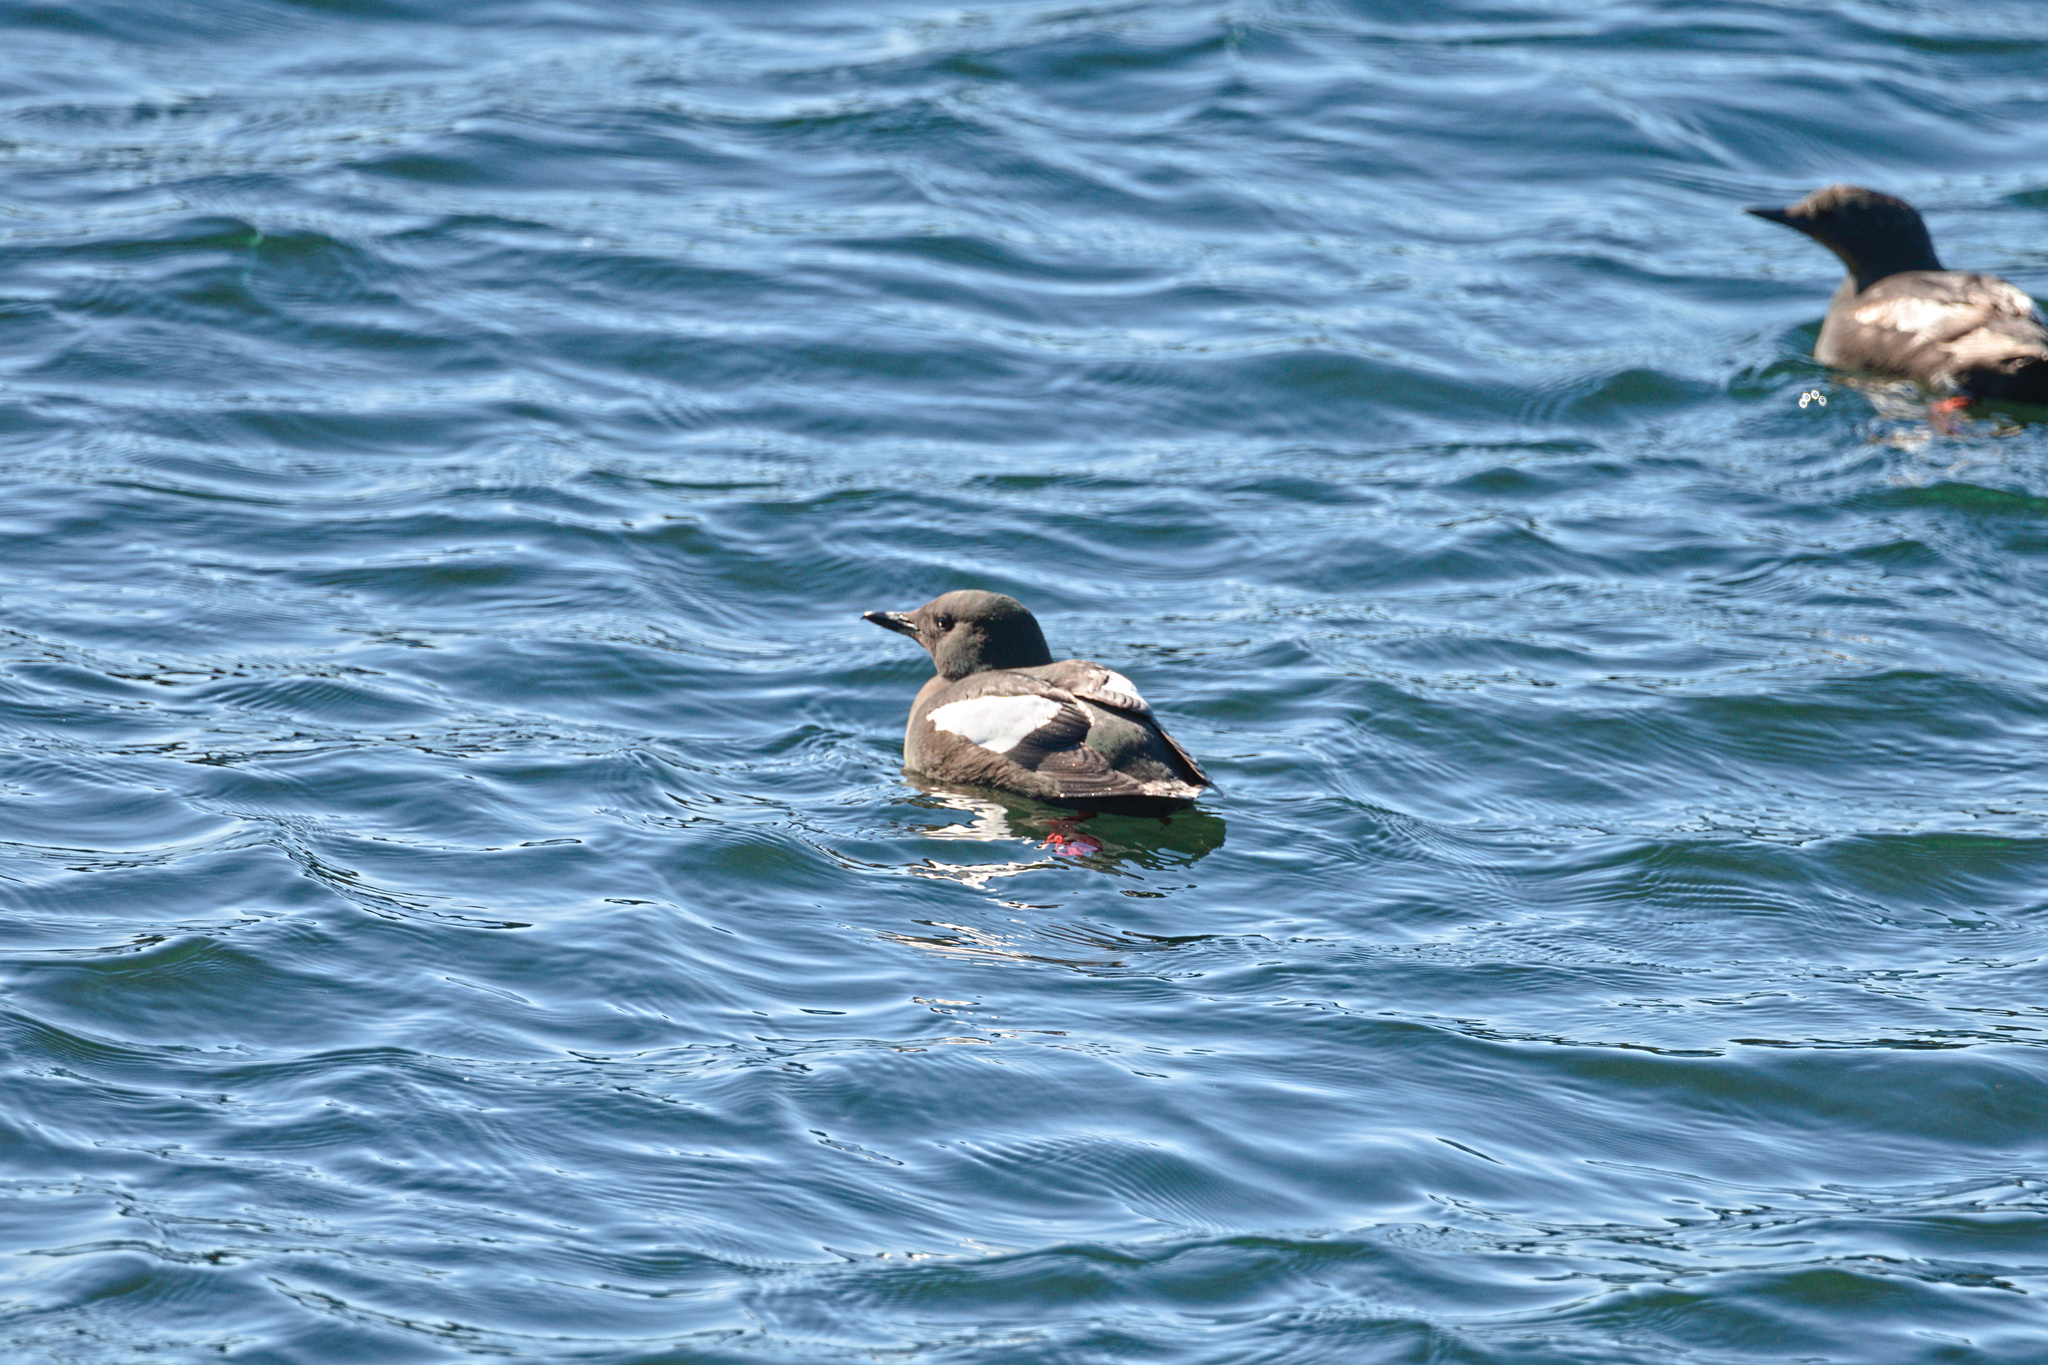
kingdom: Animalia
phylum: Chordata
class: Aves
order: Charadriiformes
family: Alcidae
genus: Cepphus
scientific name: Cepphus grylle
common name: Black guillemot
